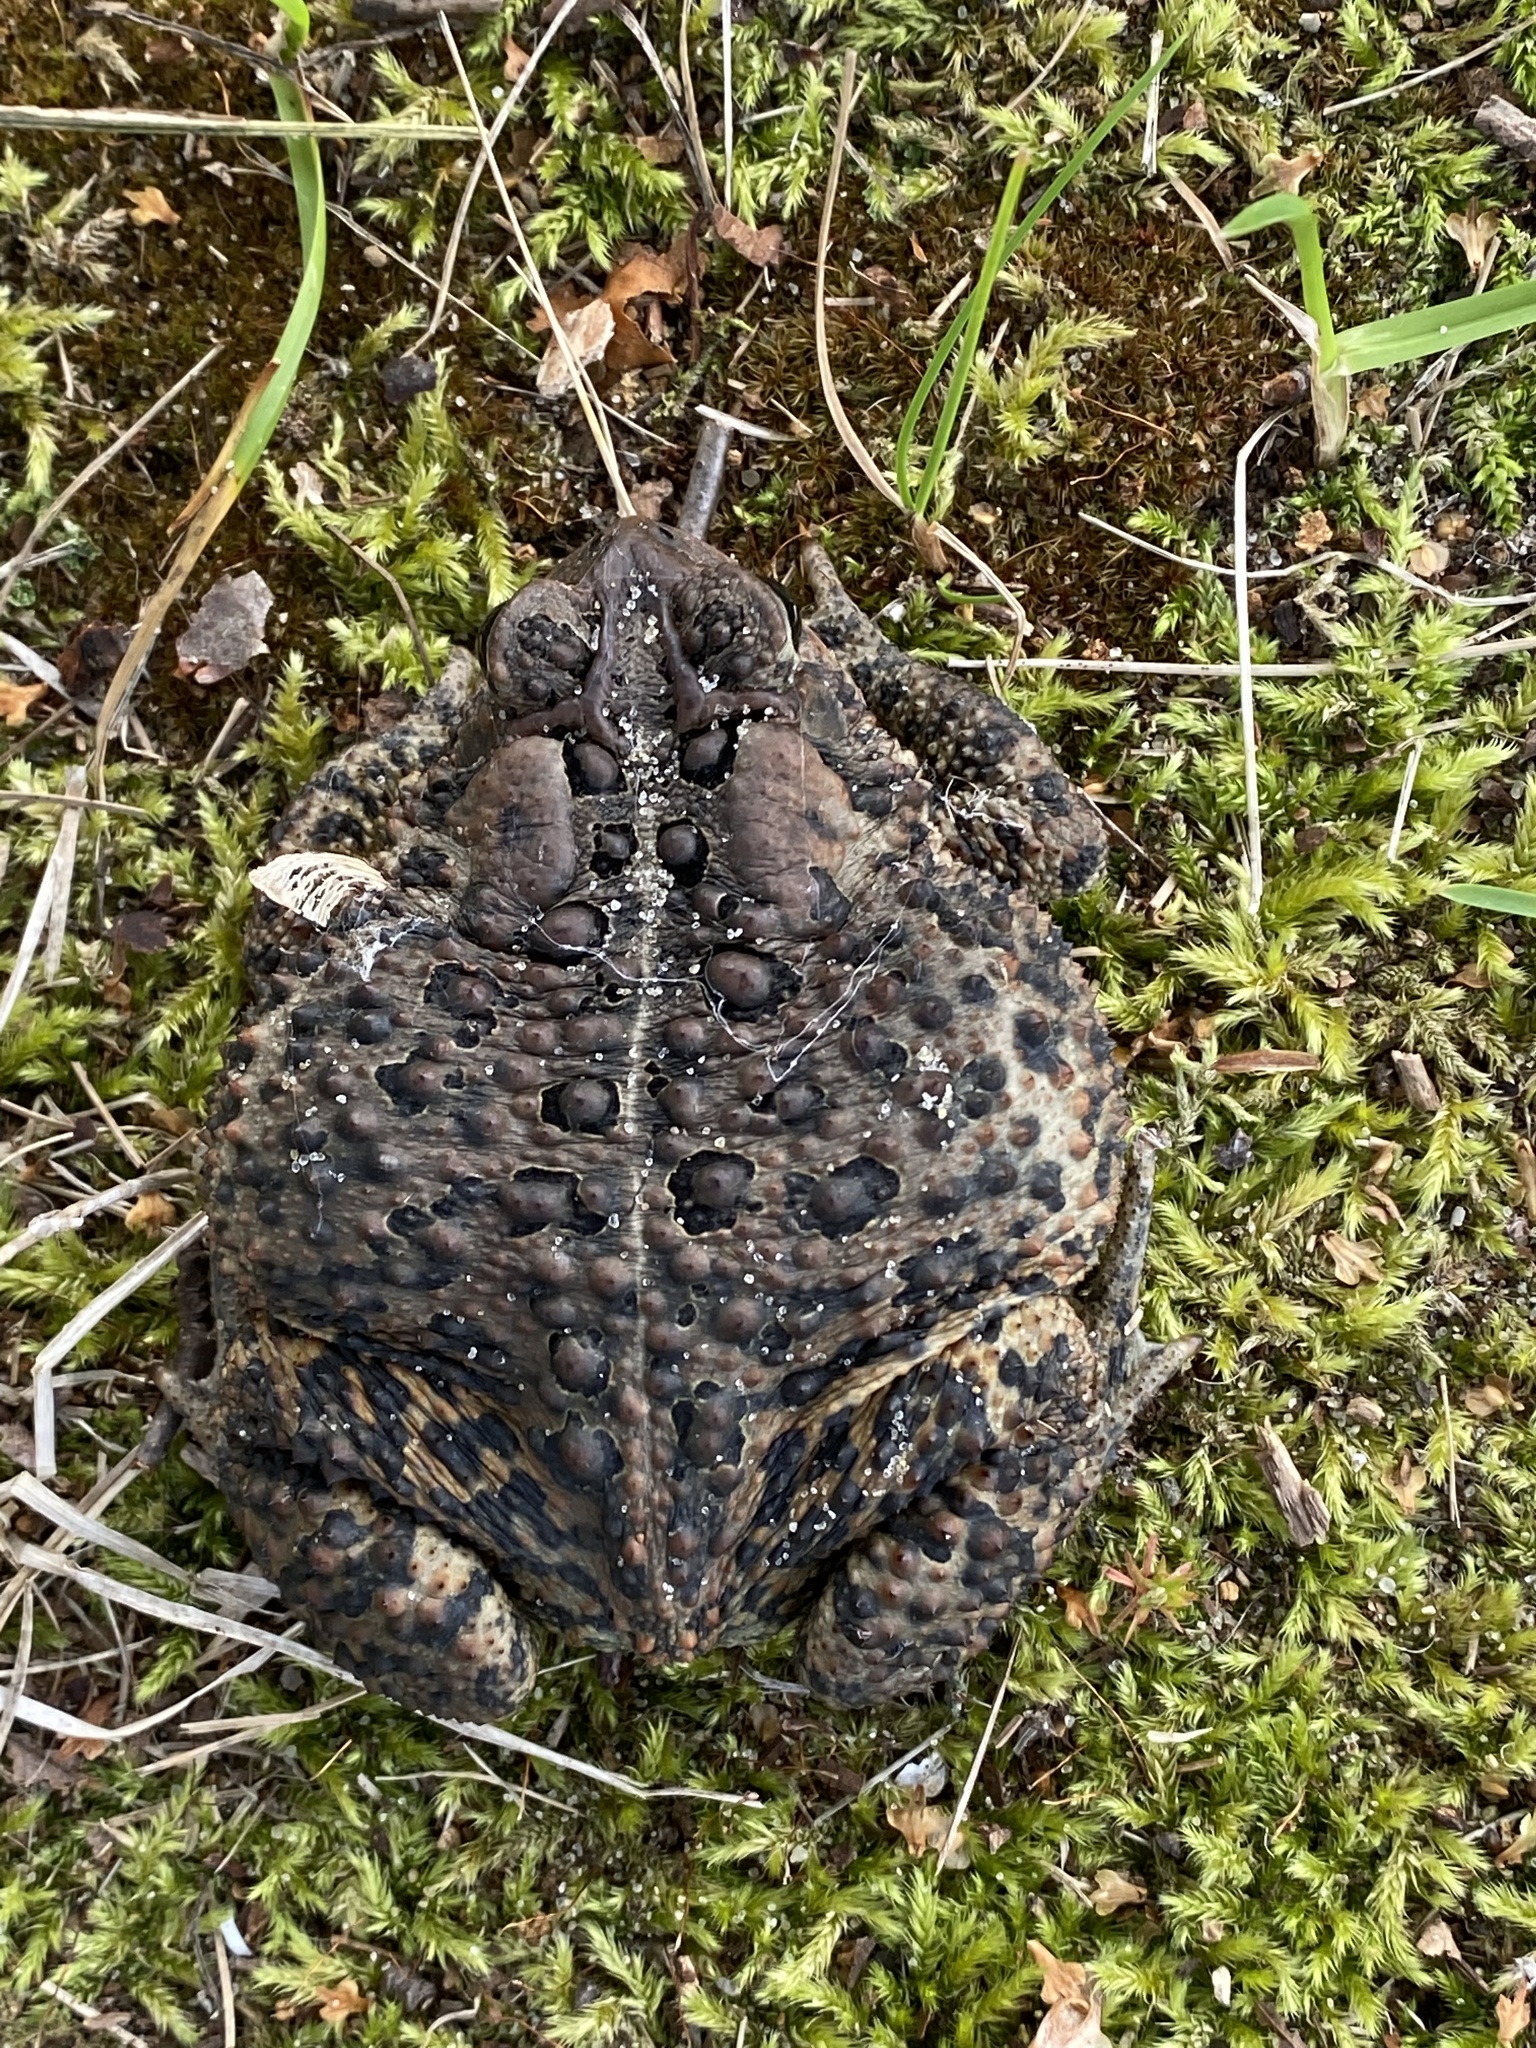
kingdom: Animalia
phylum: Chordata
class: Amphibia
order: Anura
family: Bufonidae
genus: Anaxyrus
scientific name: Anaxyrus americanus
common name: American toad
